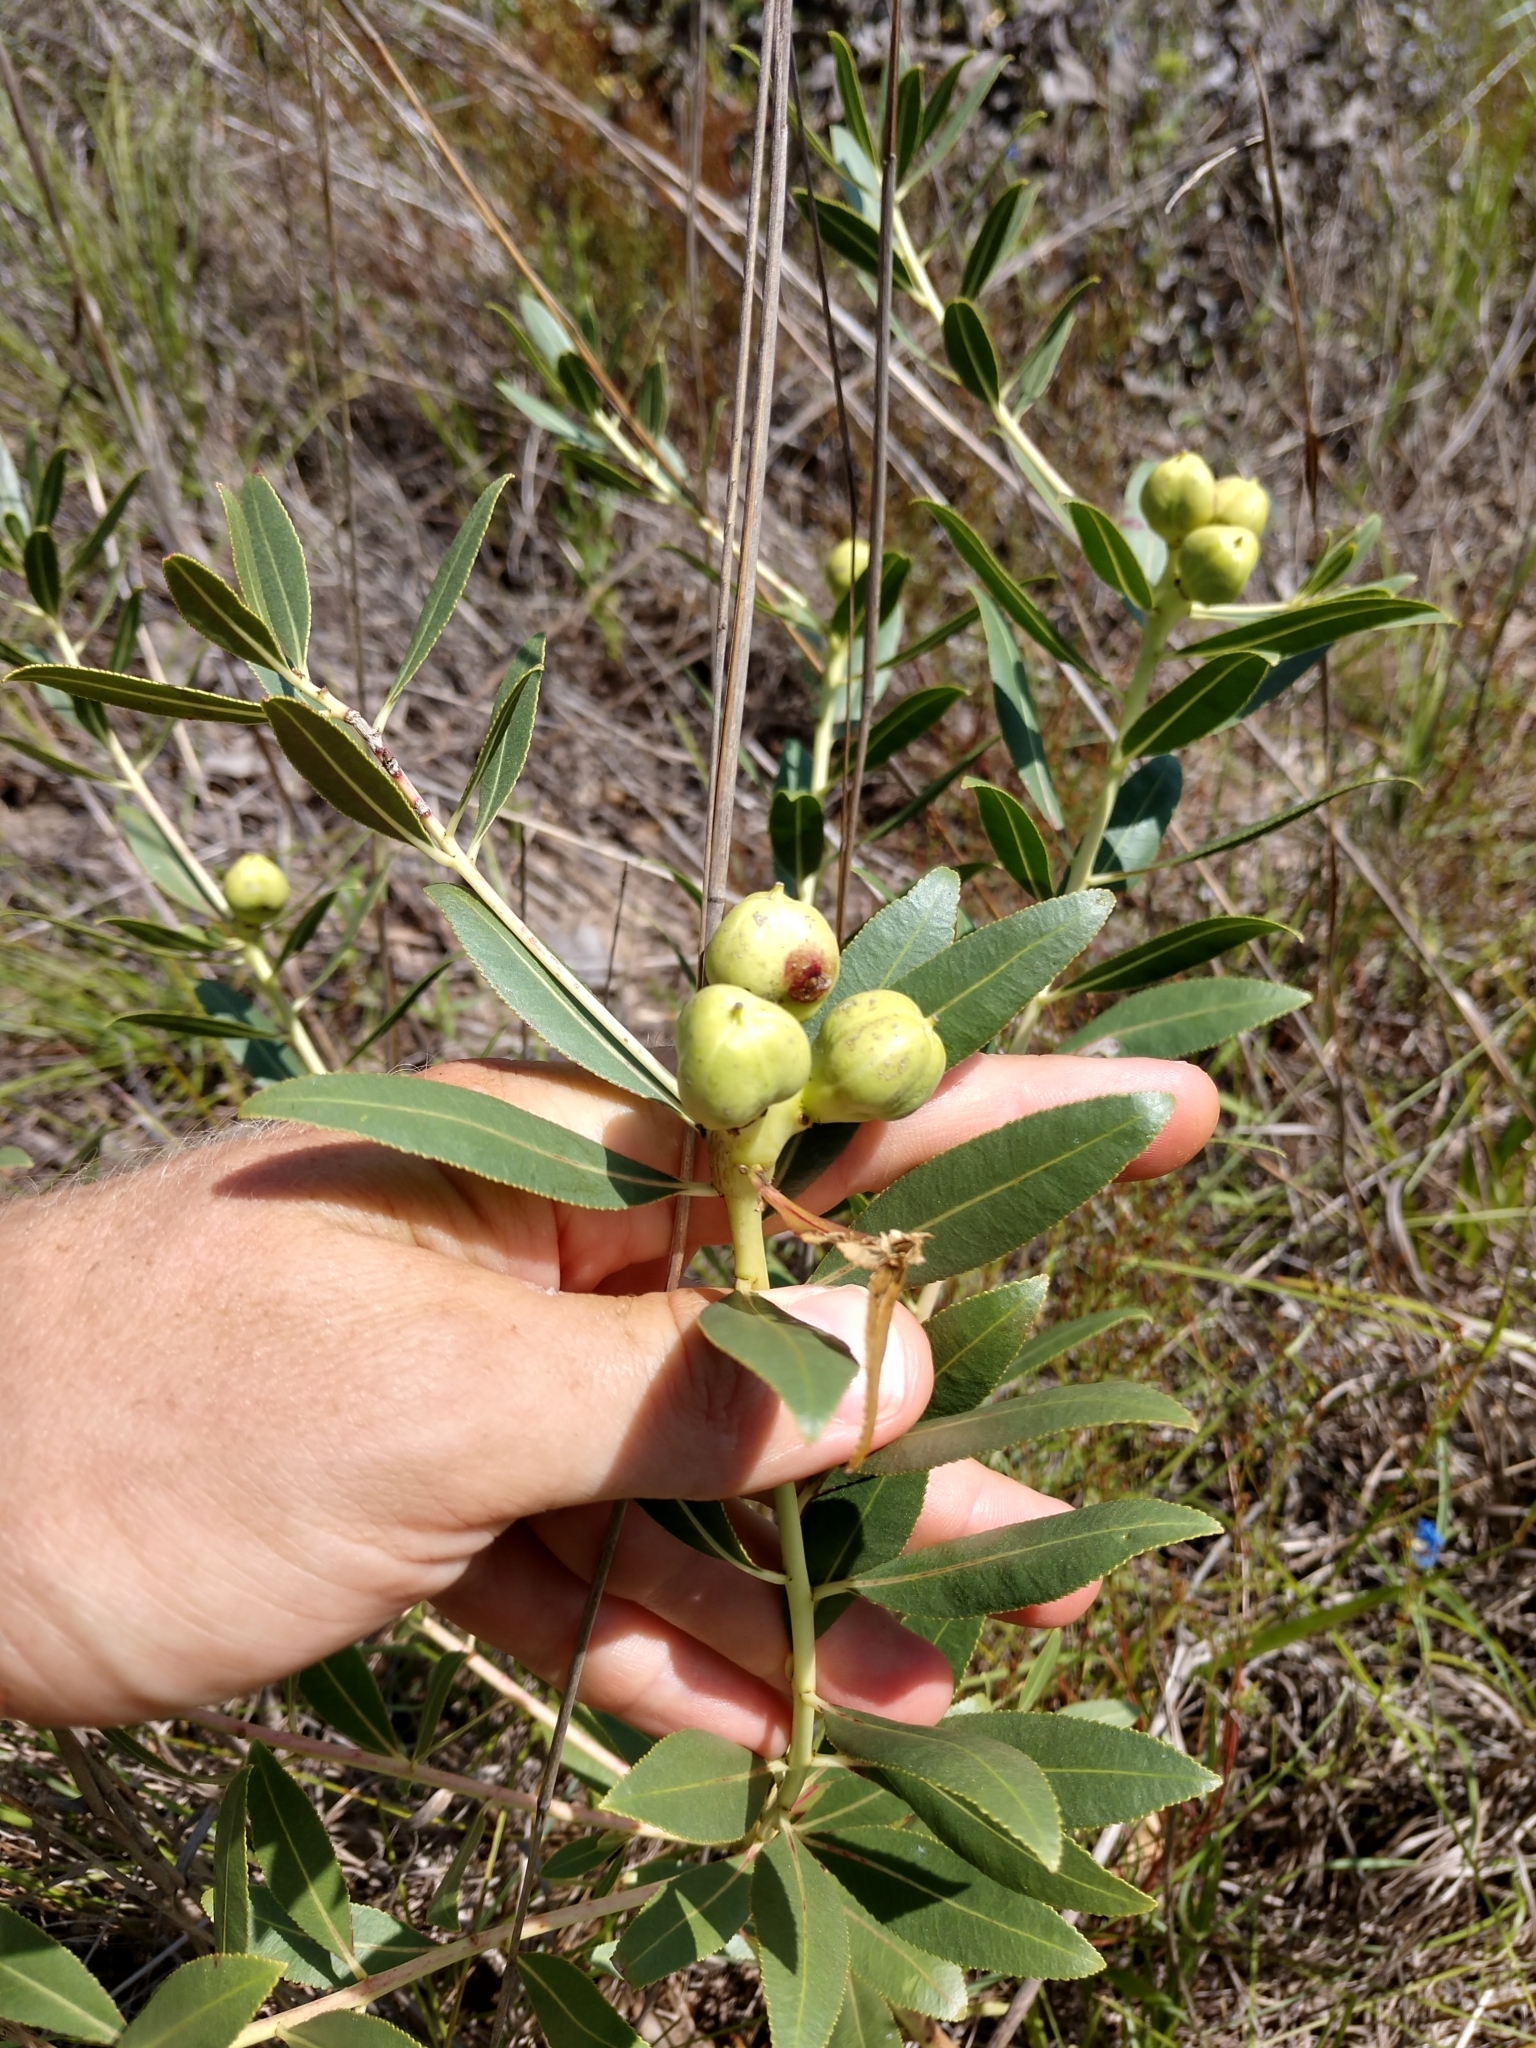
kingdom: Plantae
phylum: Tracheophyta
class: Magnoliopsida
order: Malpighiales
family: Euphorbiaceae
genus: Stillingia
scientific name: Stillingia sylvatica
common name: Queen's-delight
